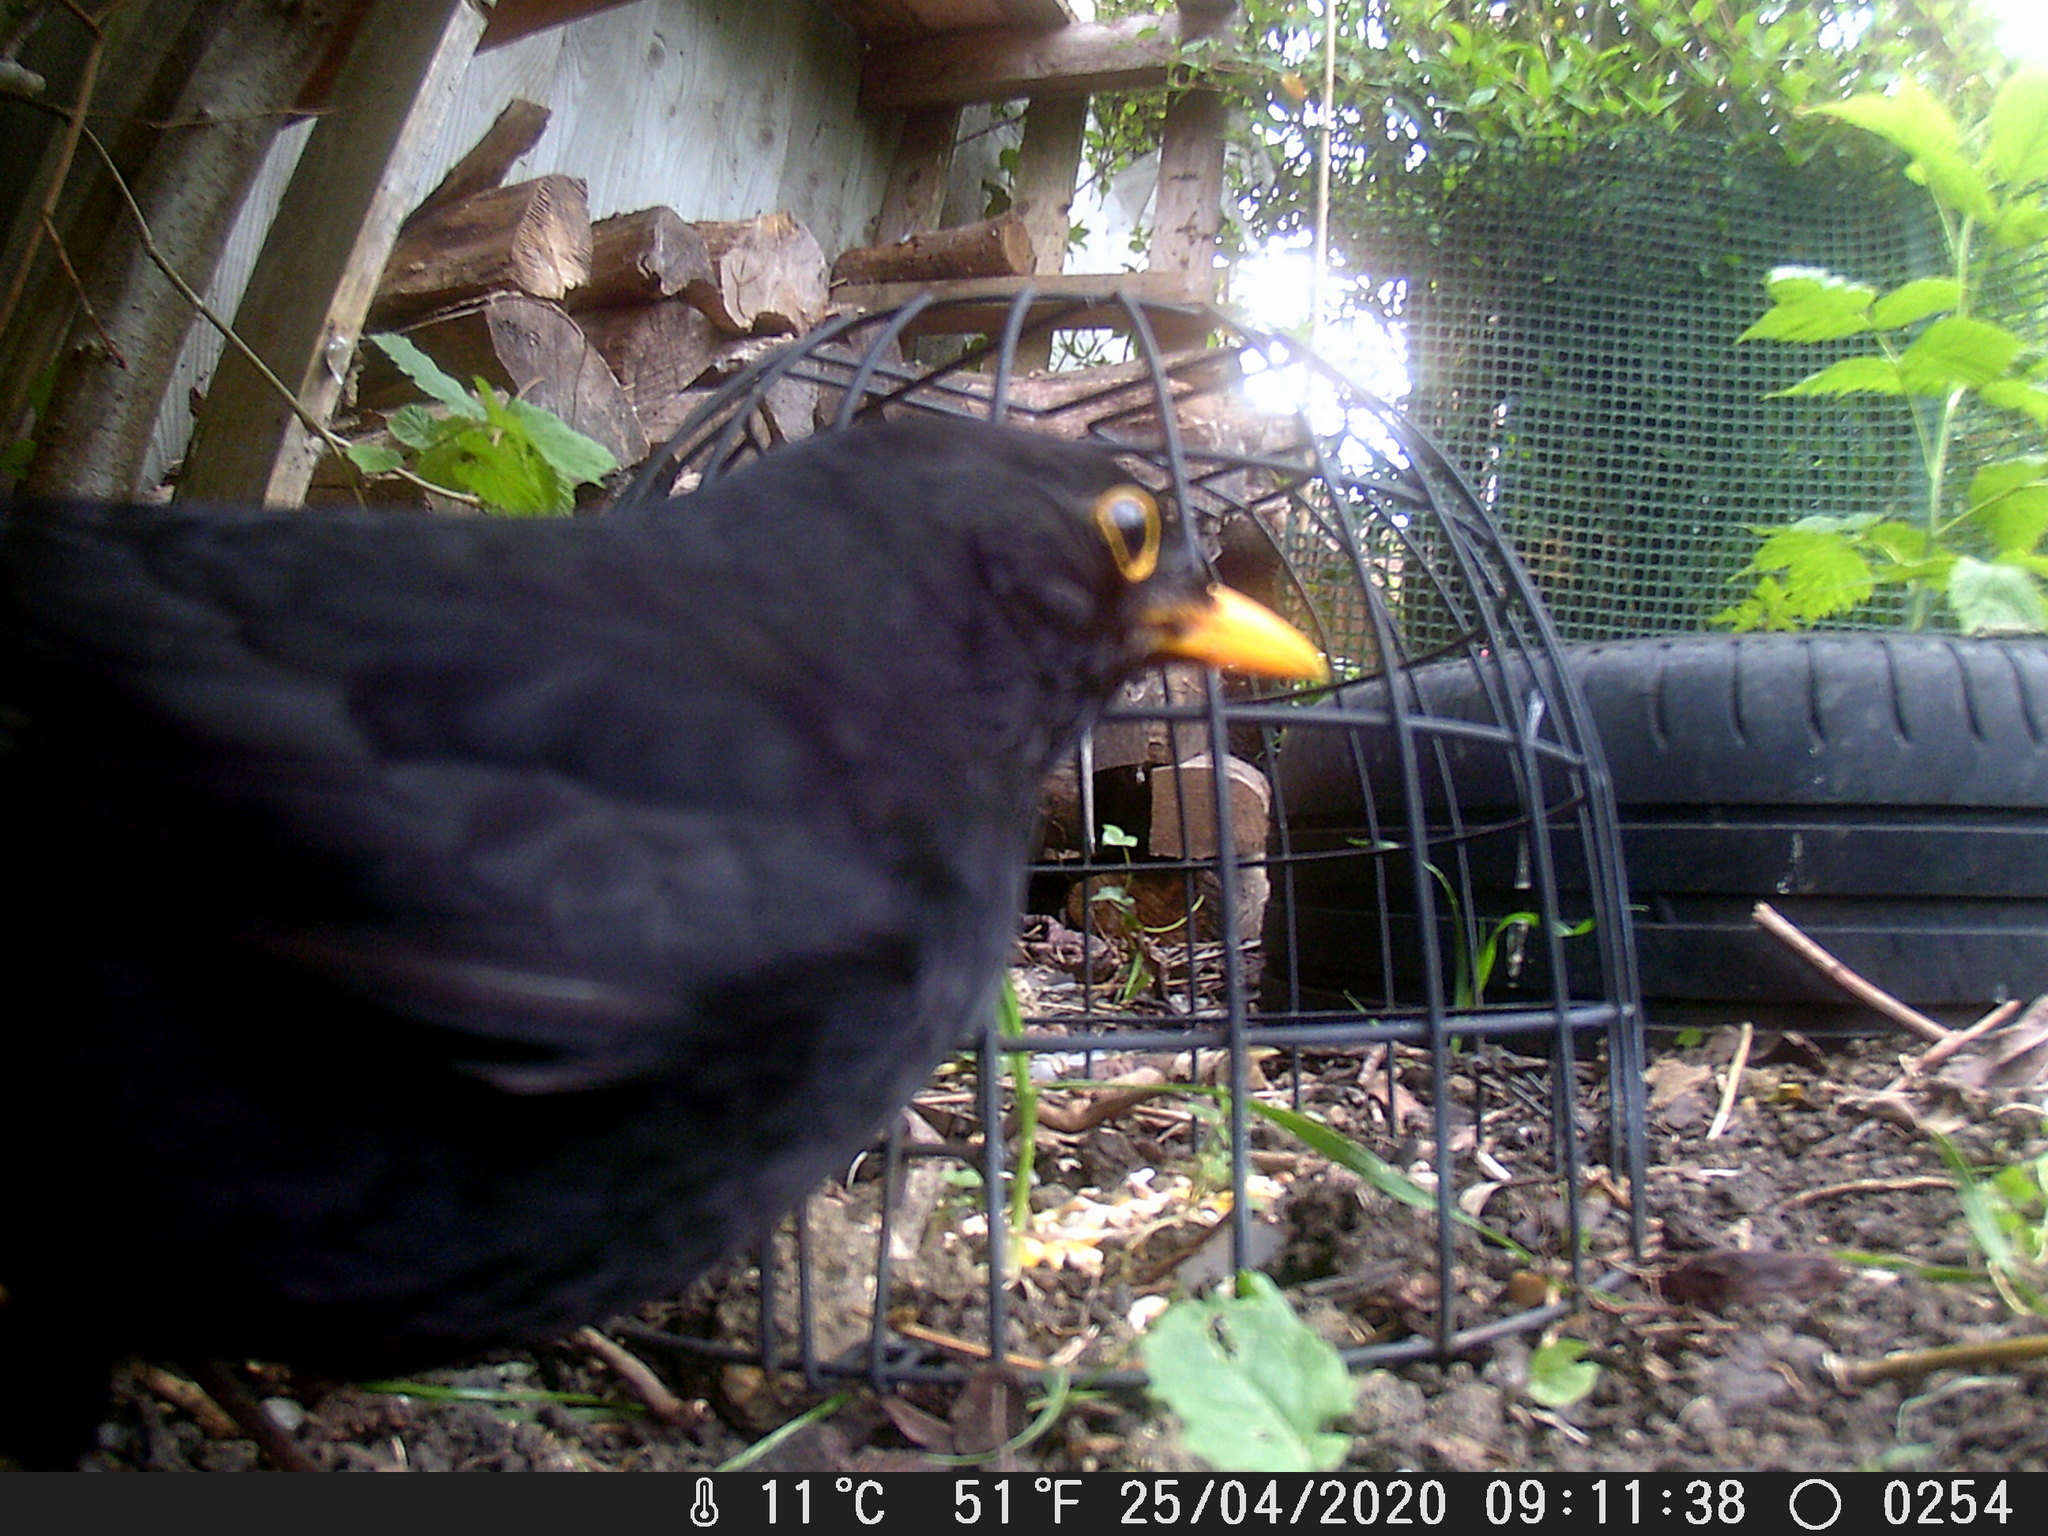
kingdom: Animalia
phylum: Chordata
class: Aves
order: Passeriformes
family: Turdidae
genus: Turdus
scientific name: Turdus merula
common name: Common blackbird
